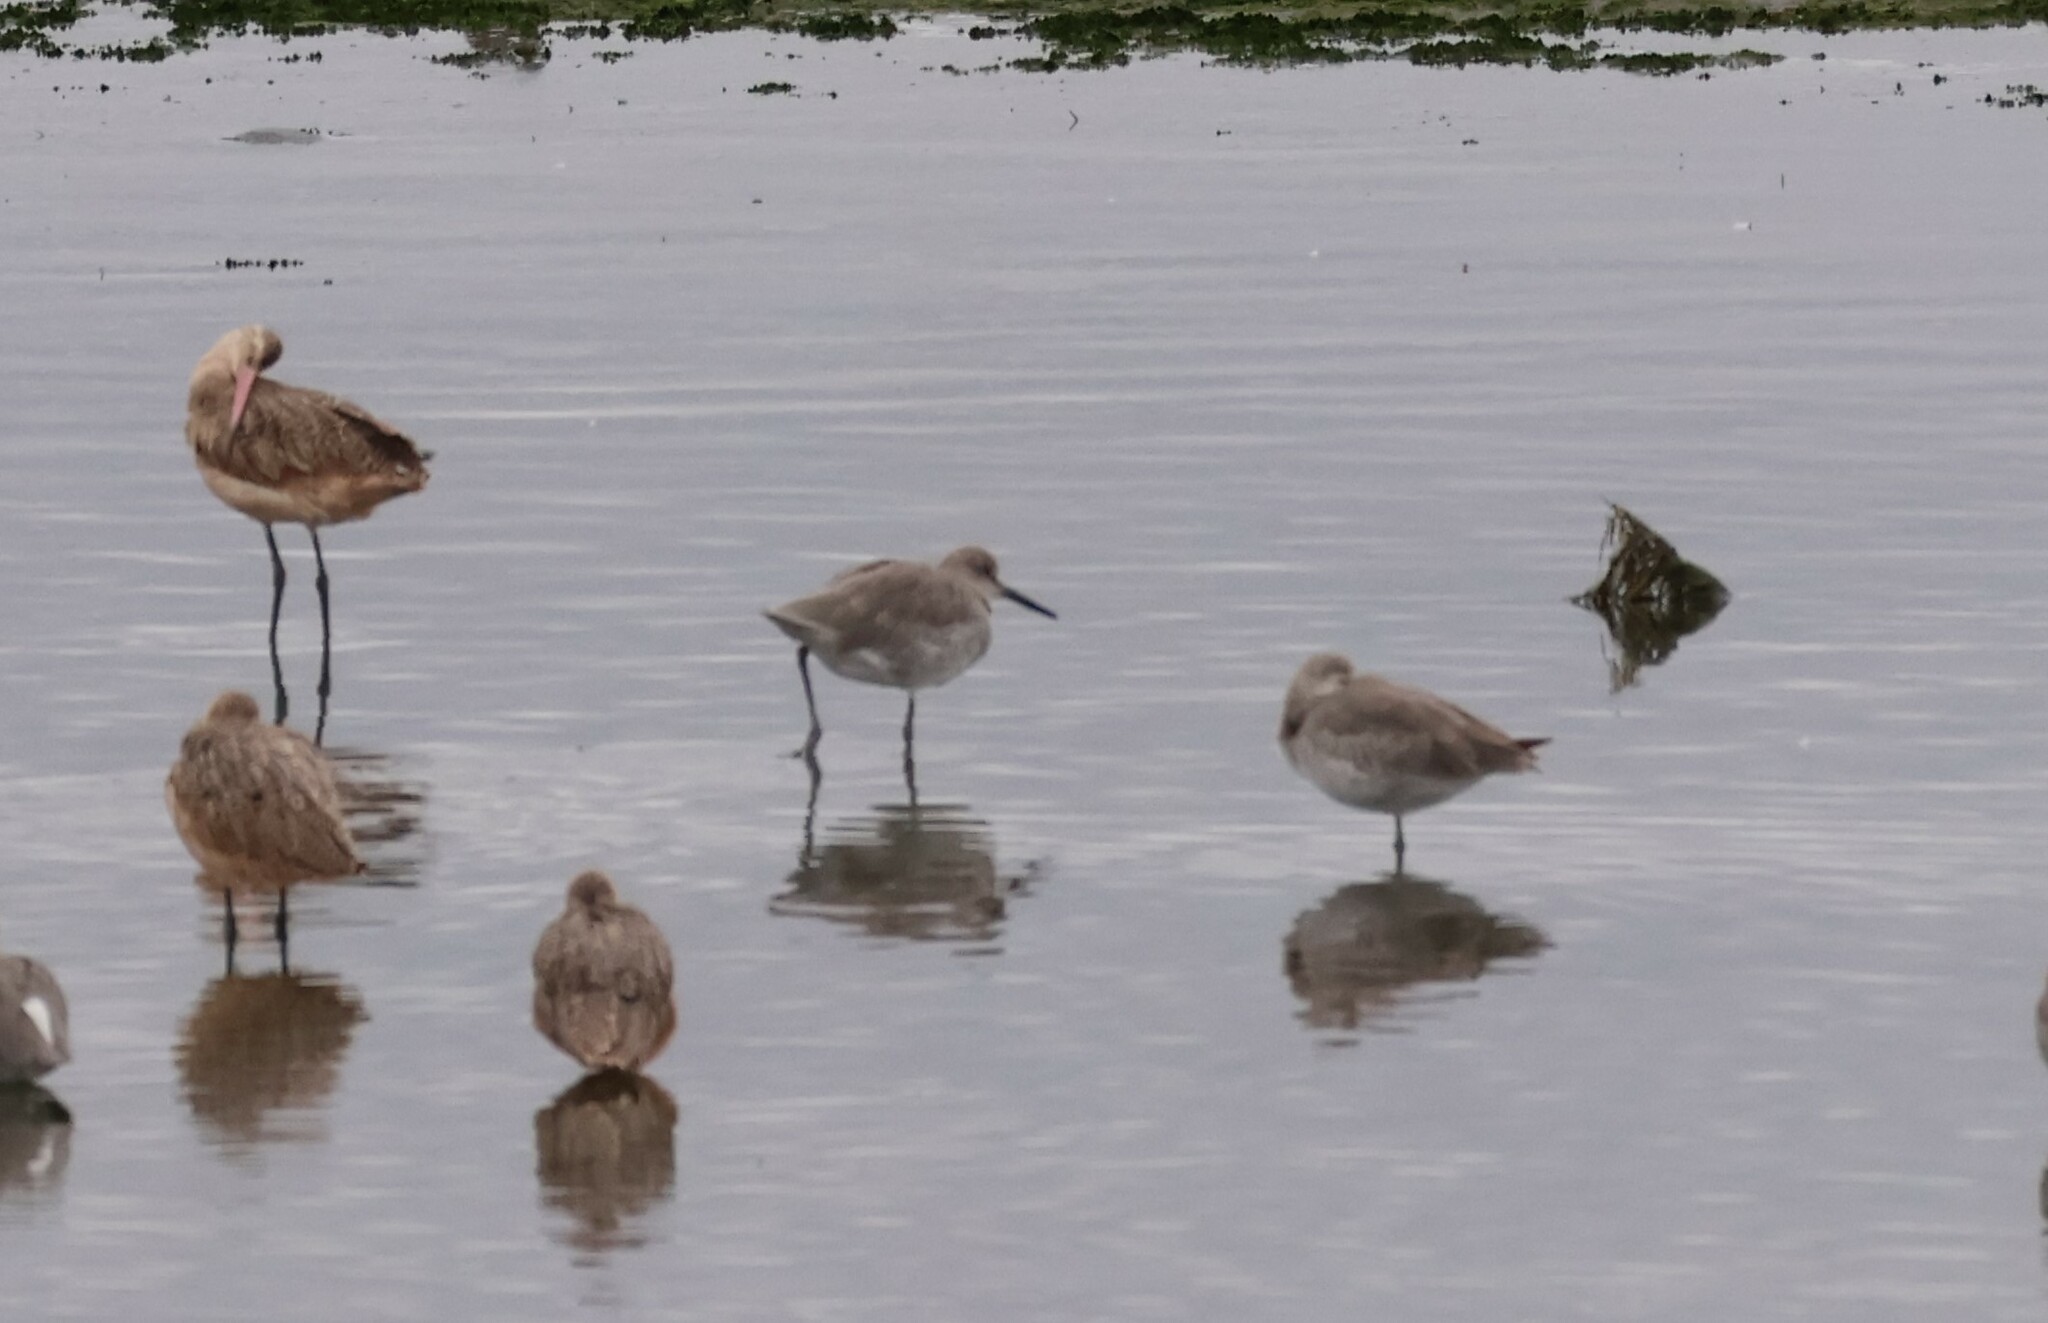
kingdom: Animalia
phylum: Chordata
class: Aves
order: Charadriiformes
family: Scolopacidae
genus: Tringa
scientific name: Tringa semipalmata
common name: Willet
